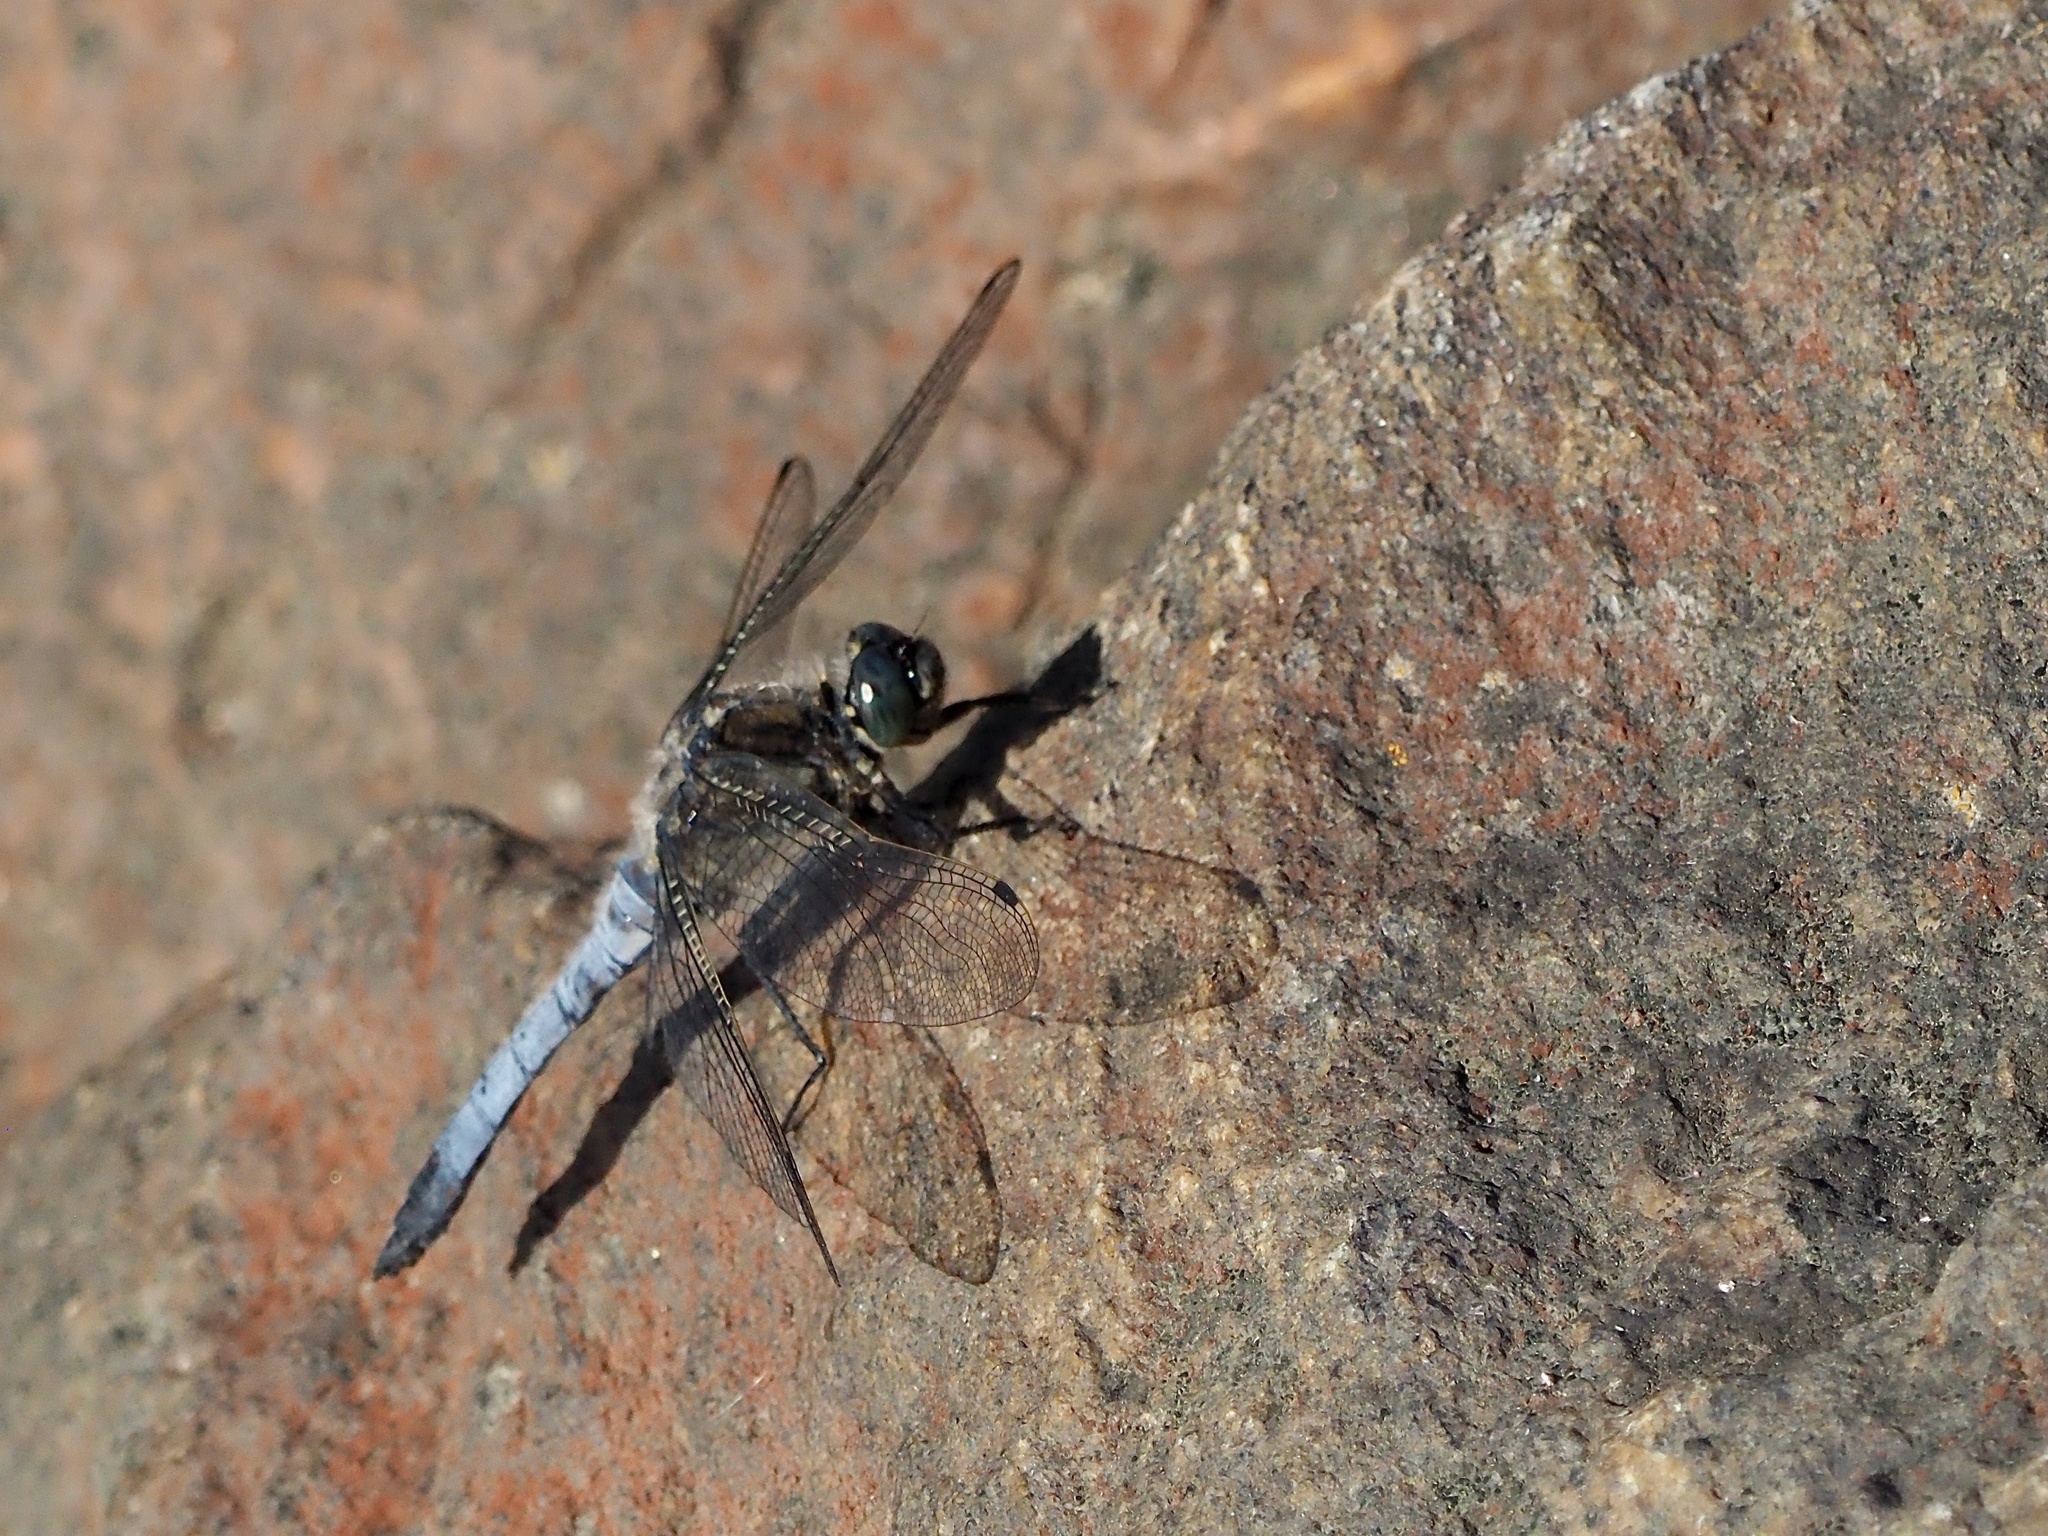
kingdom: Animalia
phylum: Arthropoda
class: Insecta
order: Odonata
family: Libellulidae
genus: Orthetrum
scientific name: Orthetrum cancellatum
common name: Black-tailed skimmer
